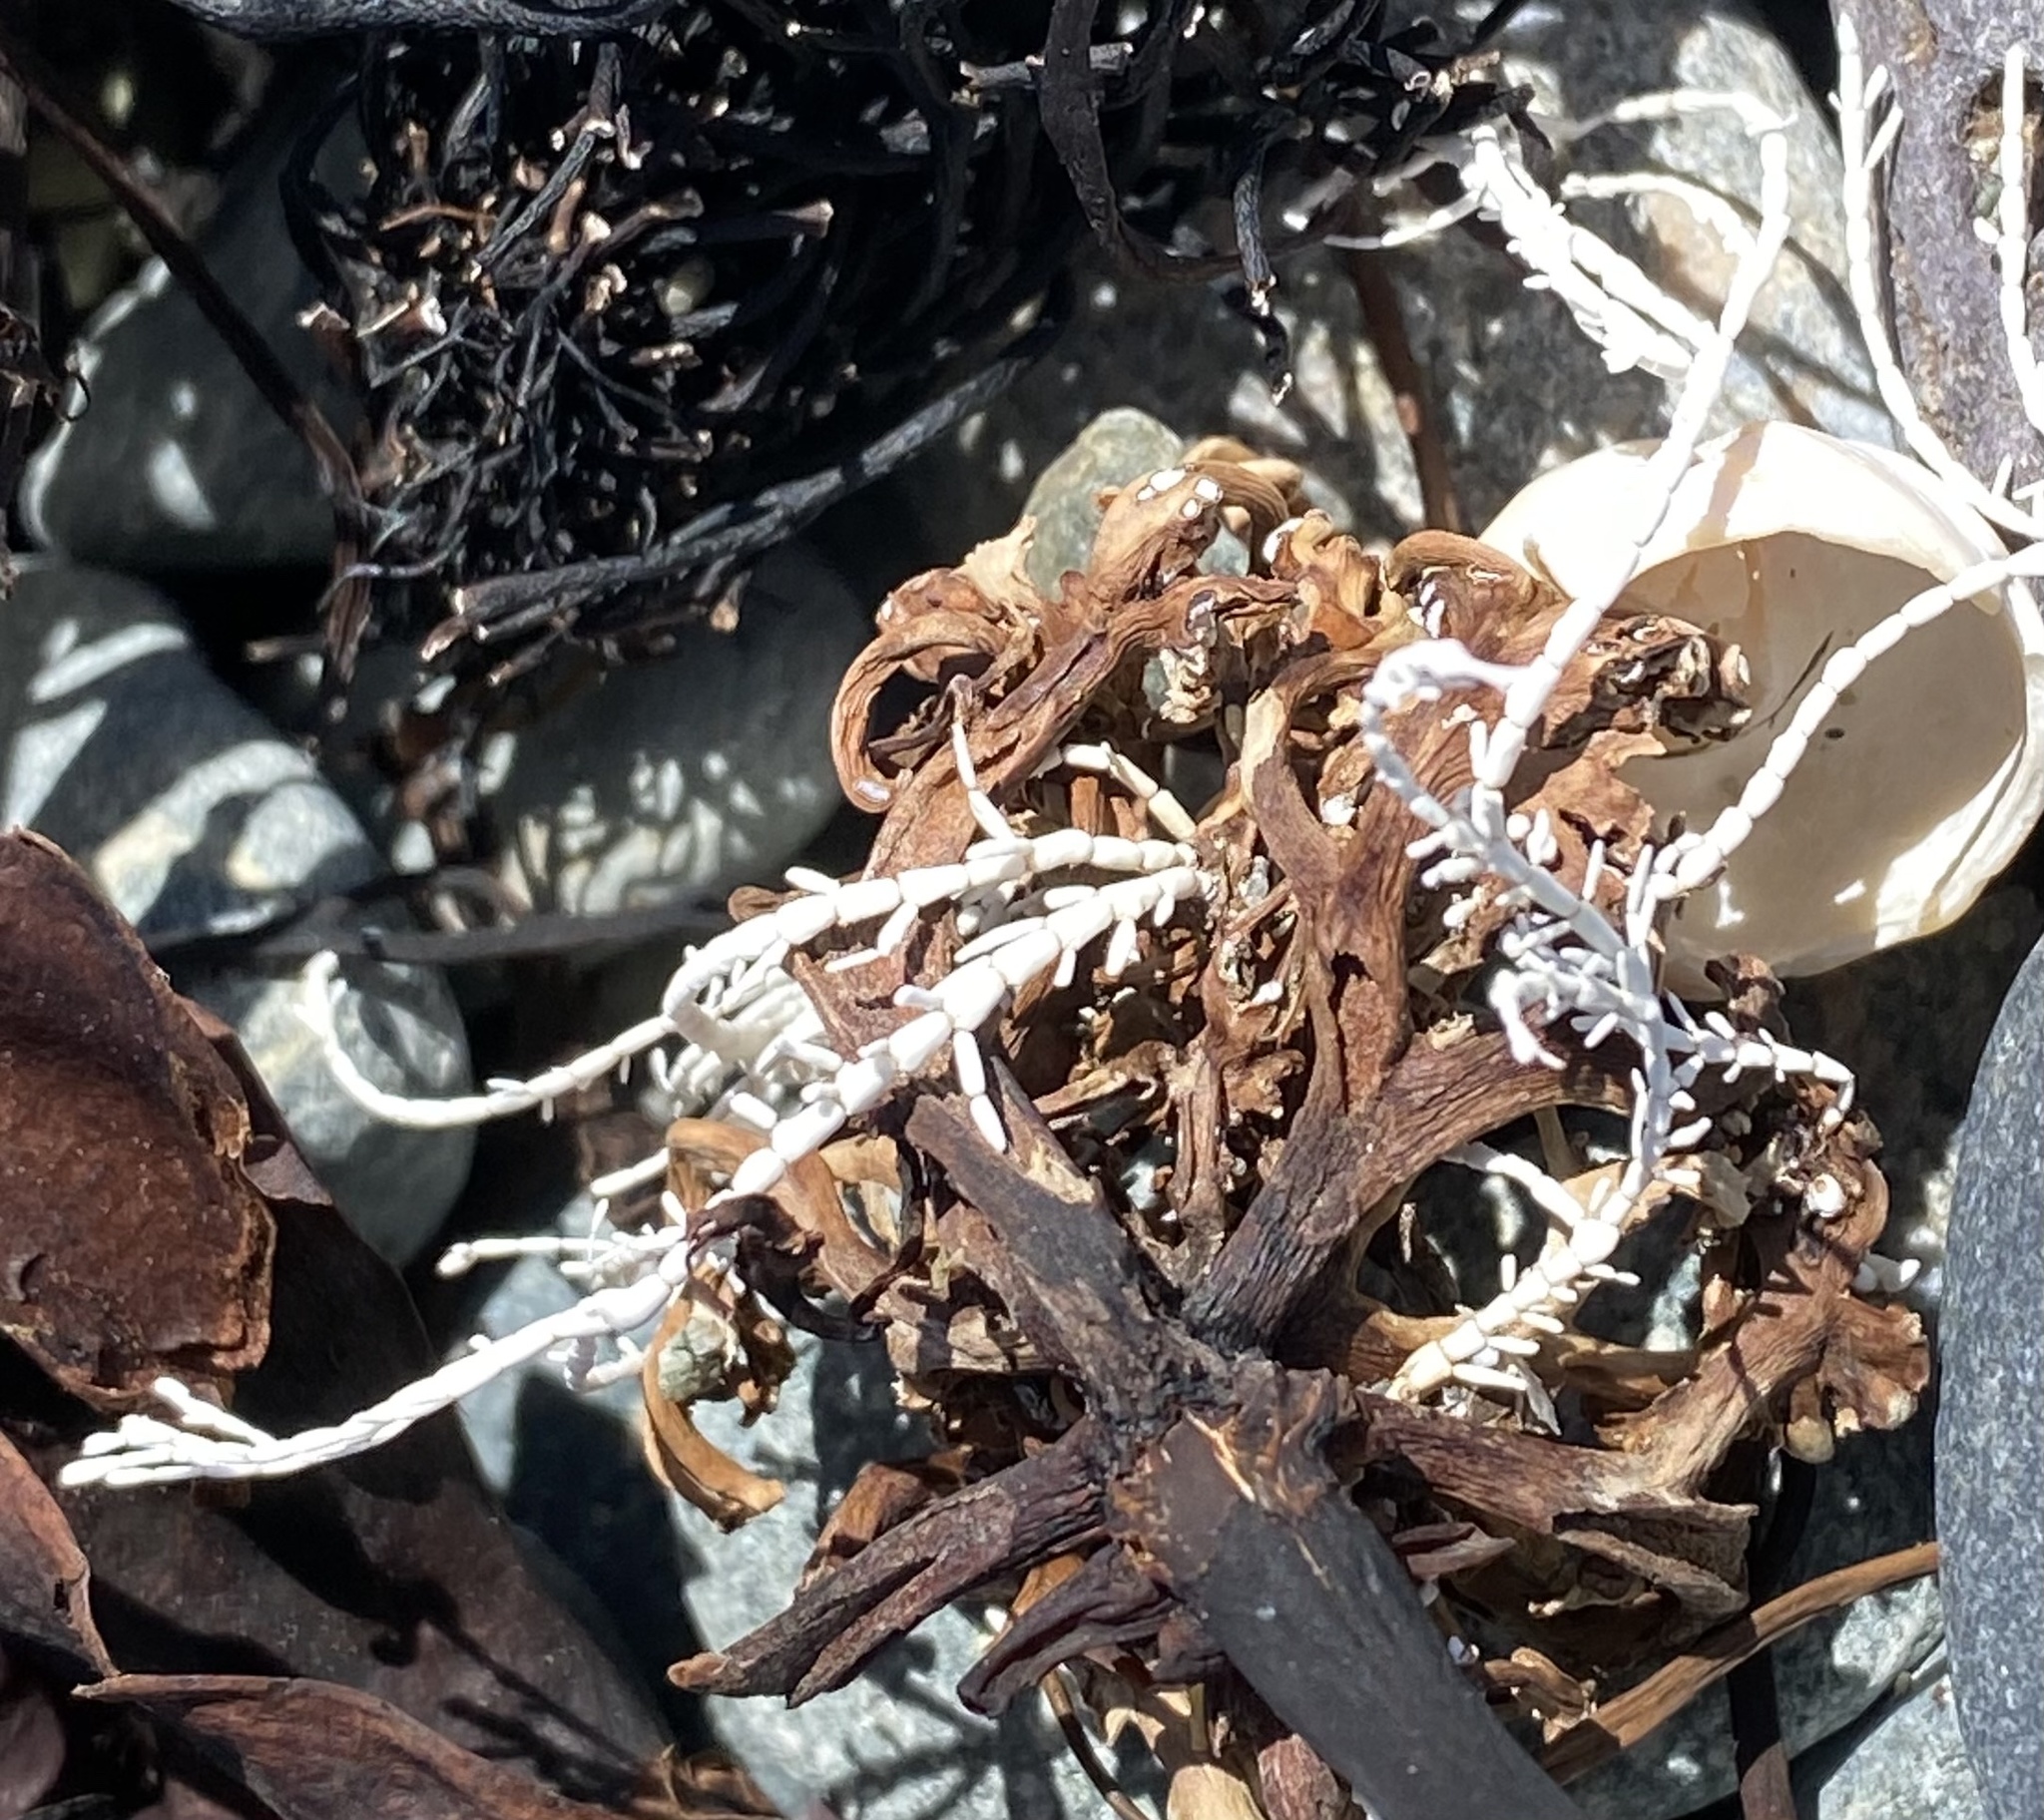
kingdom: Plantae
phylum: Rhodophyta
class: Florideophyceae
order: Corallinales
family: Corallinaceae
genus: Corallina
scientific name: Corallina officinalis
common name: Coral weed
